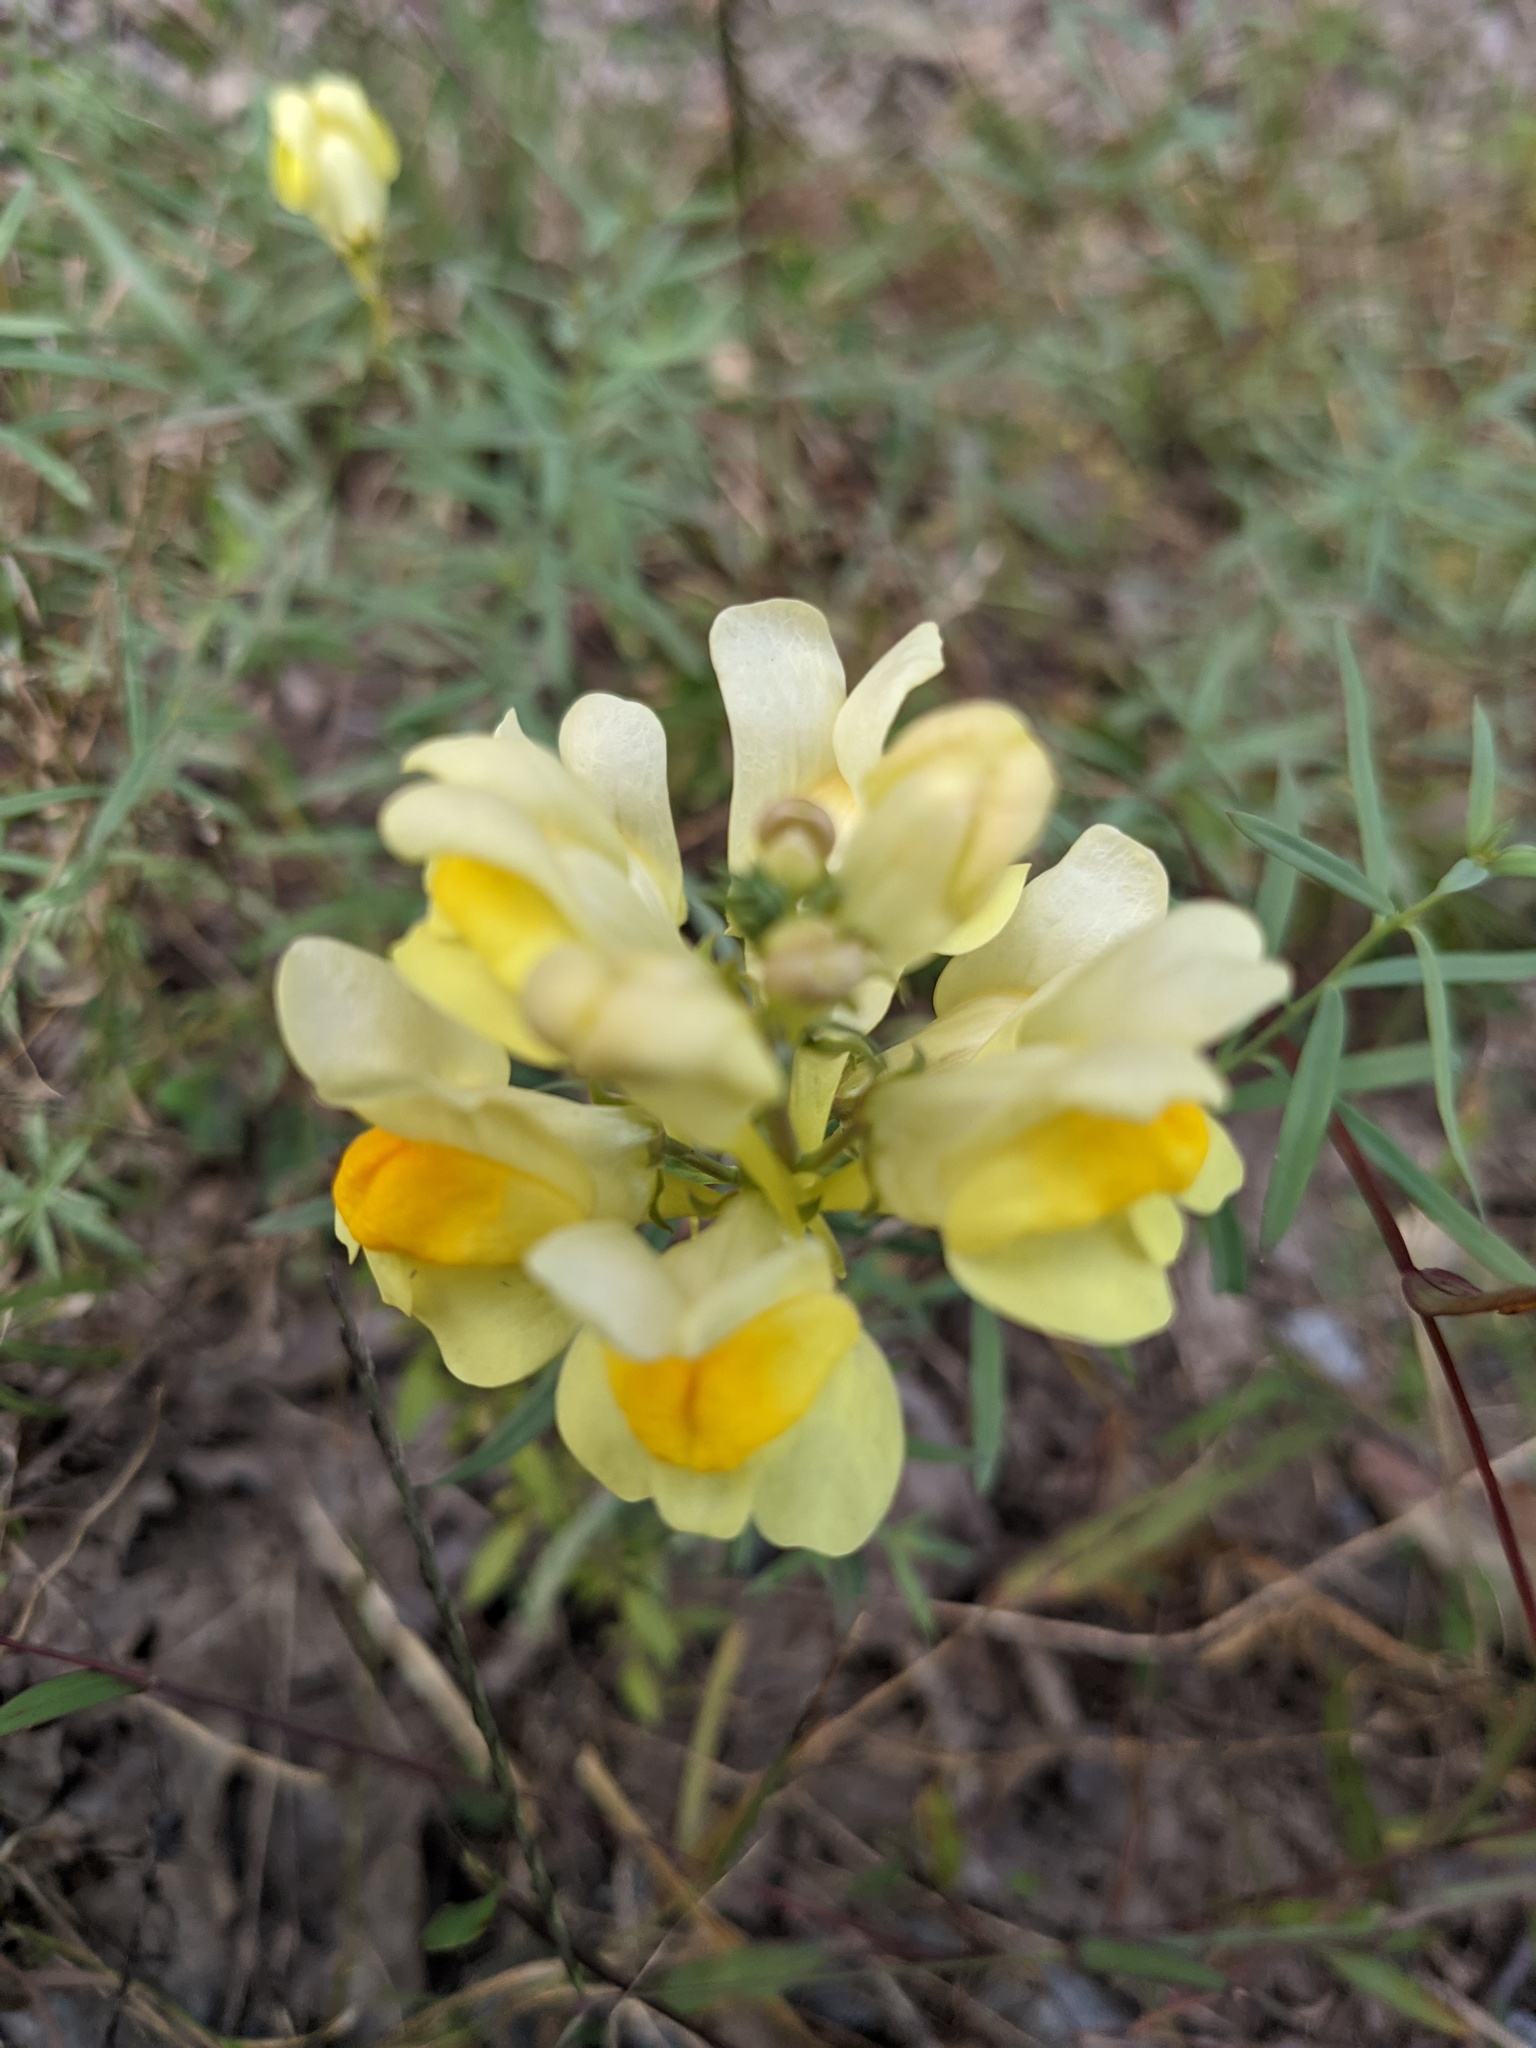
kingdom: Plantae
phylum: Tracheophyta
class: Magnoliopsida
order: Lamiales
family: Plantaginaceae
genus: Linaria
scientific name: Linaria vulgaris
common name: Butter and eggs
